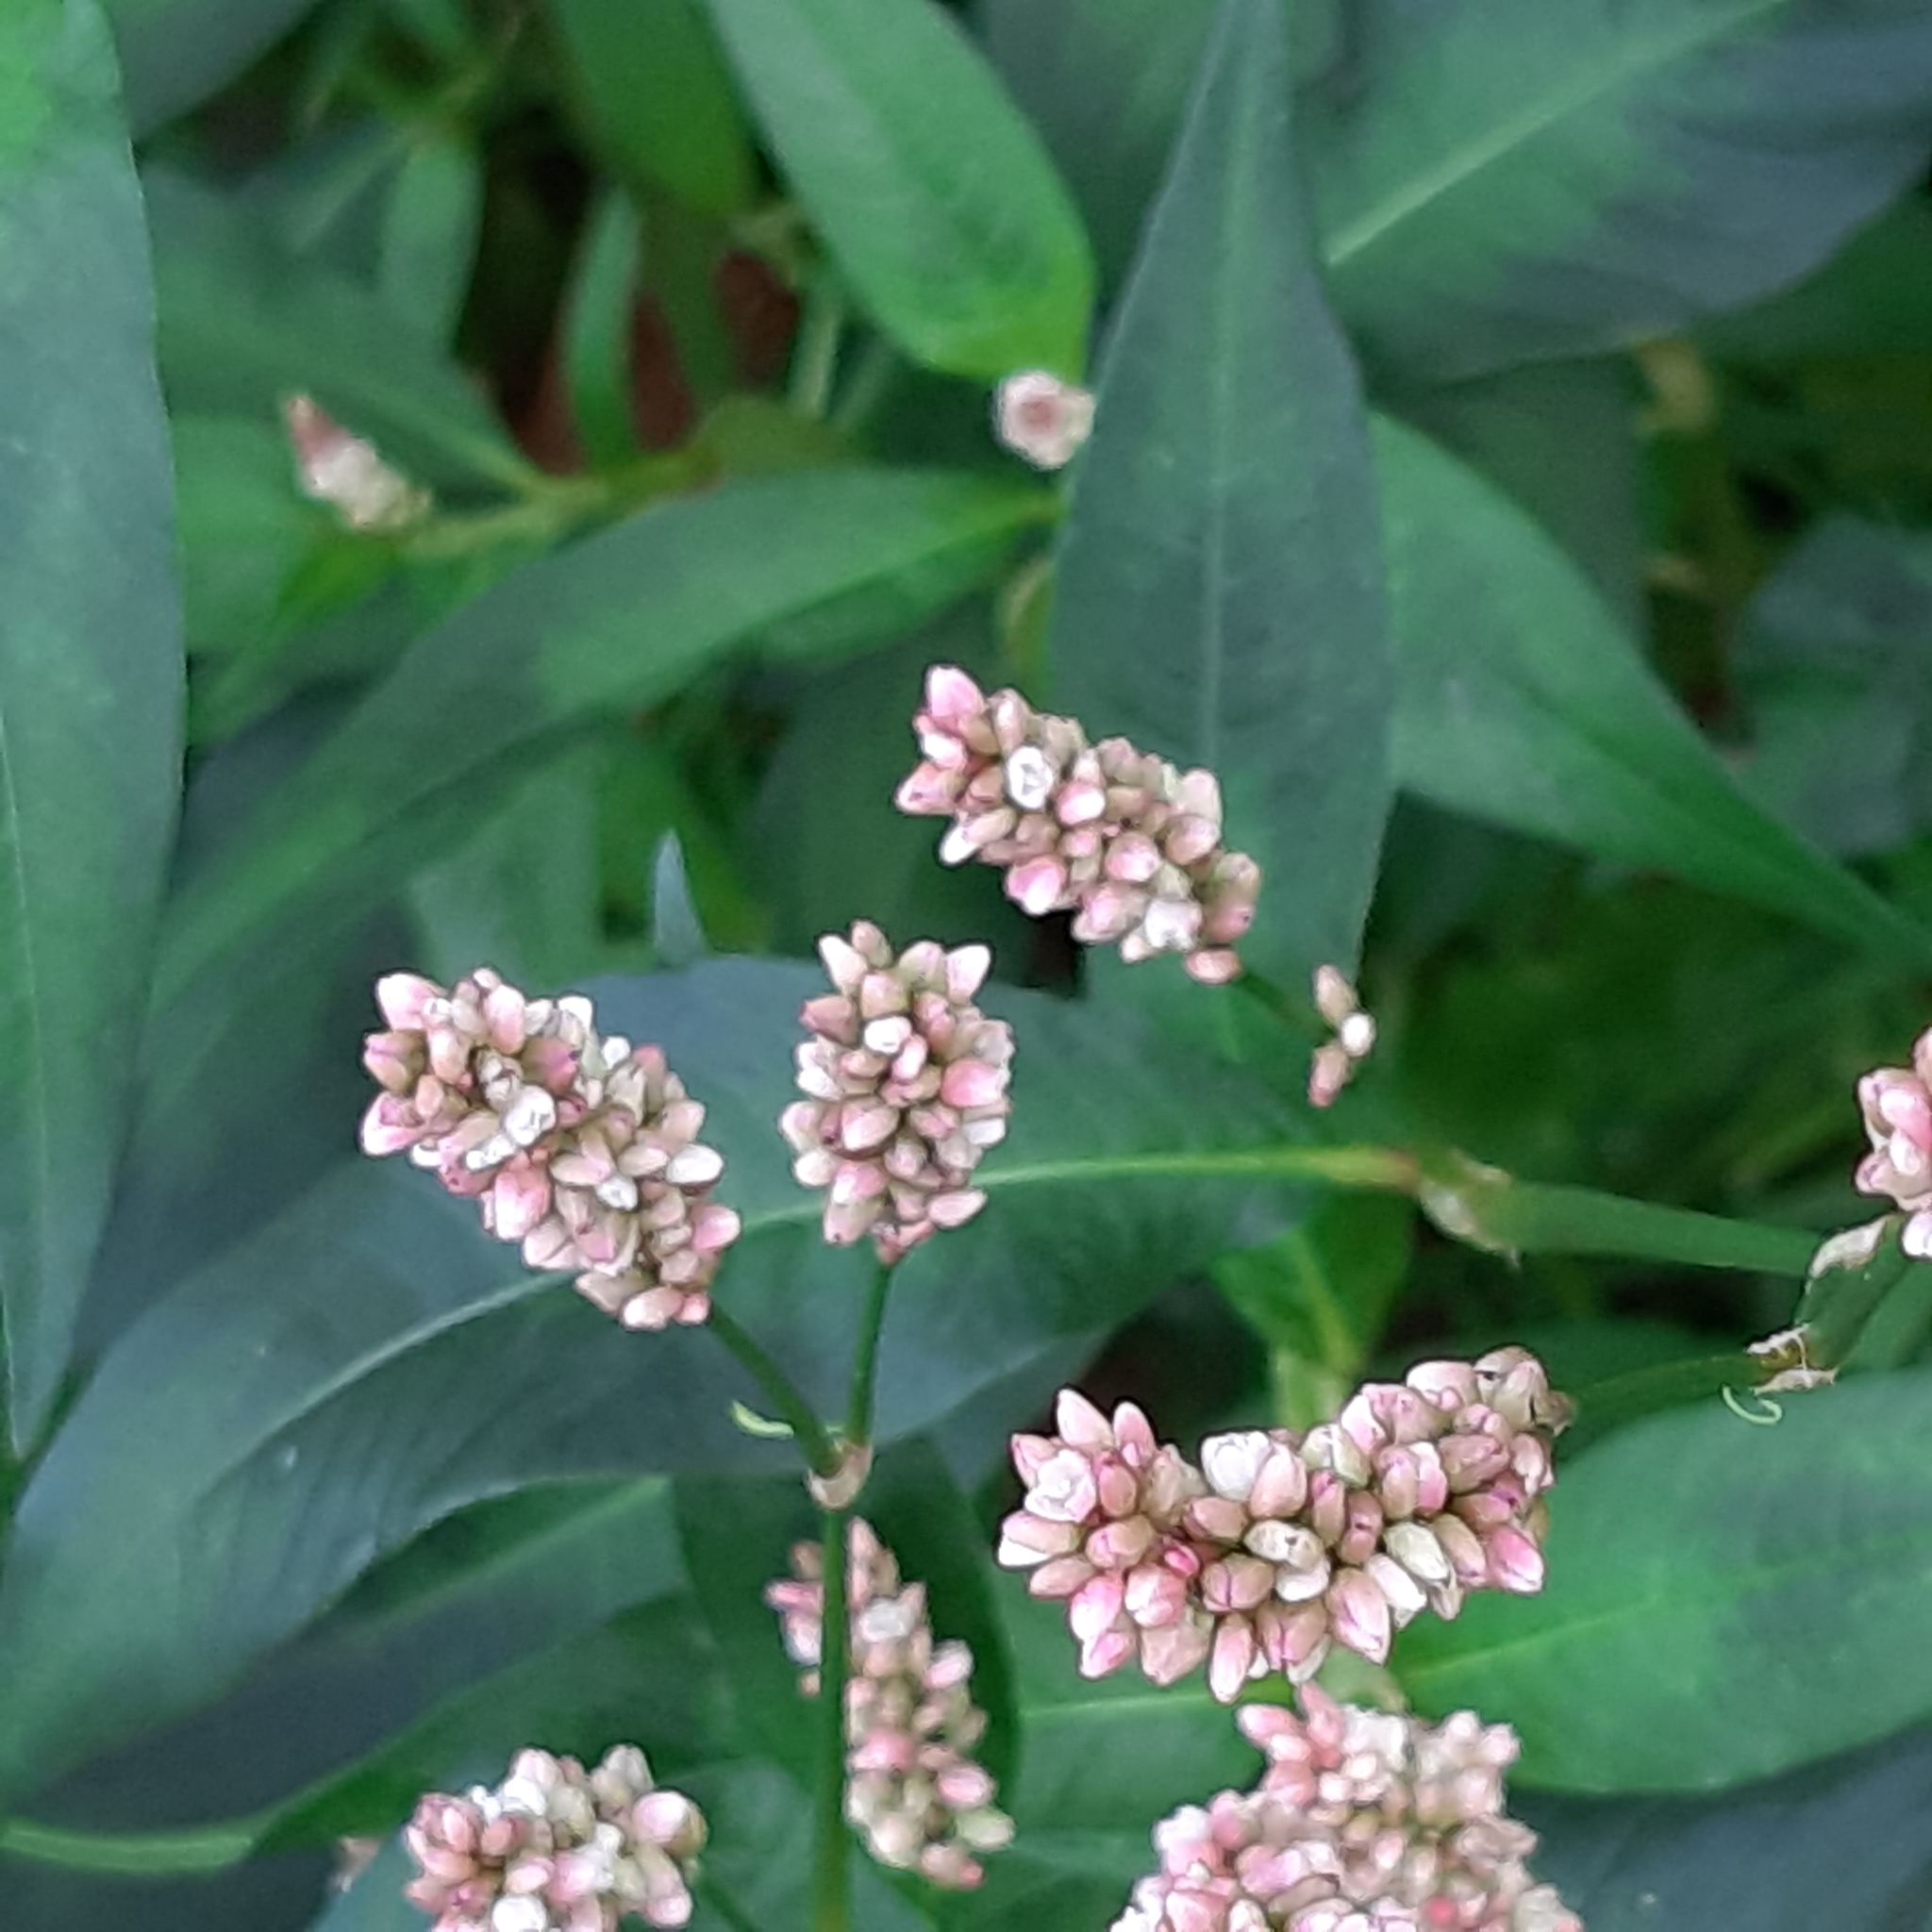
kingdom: Plantae
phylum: Tracheophyta
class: Magnoliopsida
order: Caryophyllales
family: Polygonaceae
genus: Persicaria
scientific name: Persicaria maculosa
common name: Redshank
